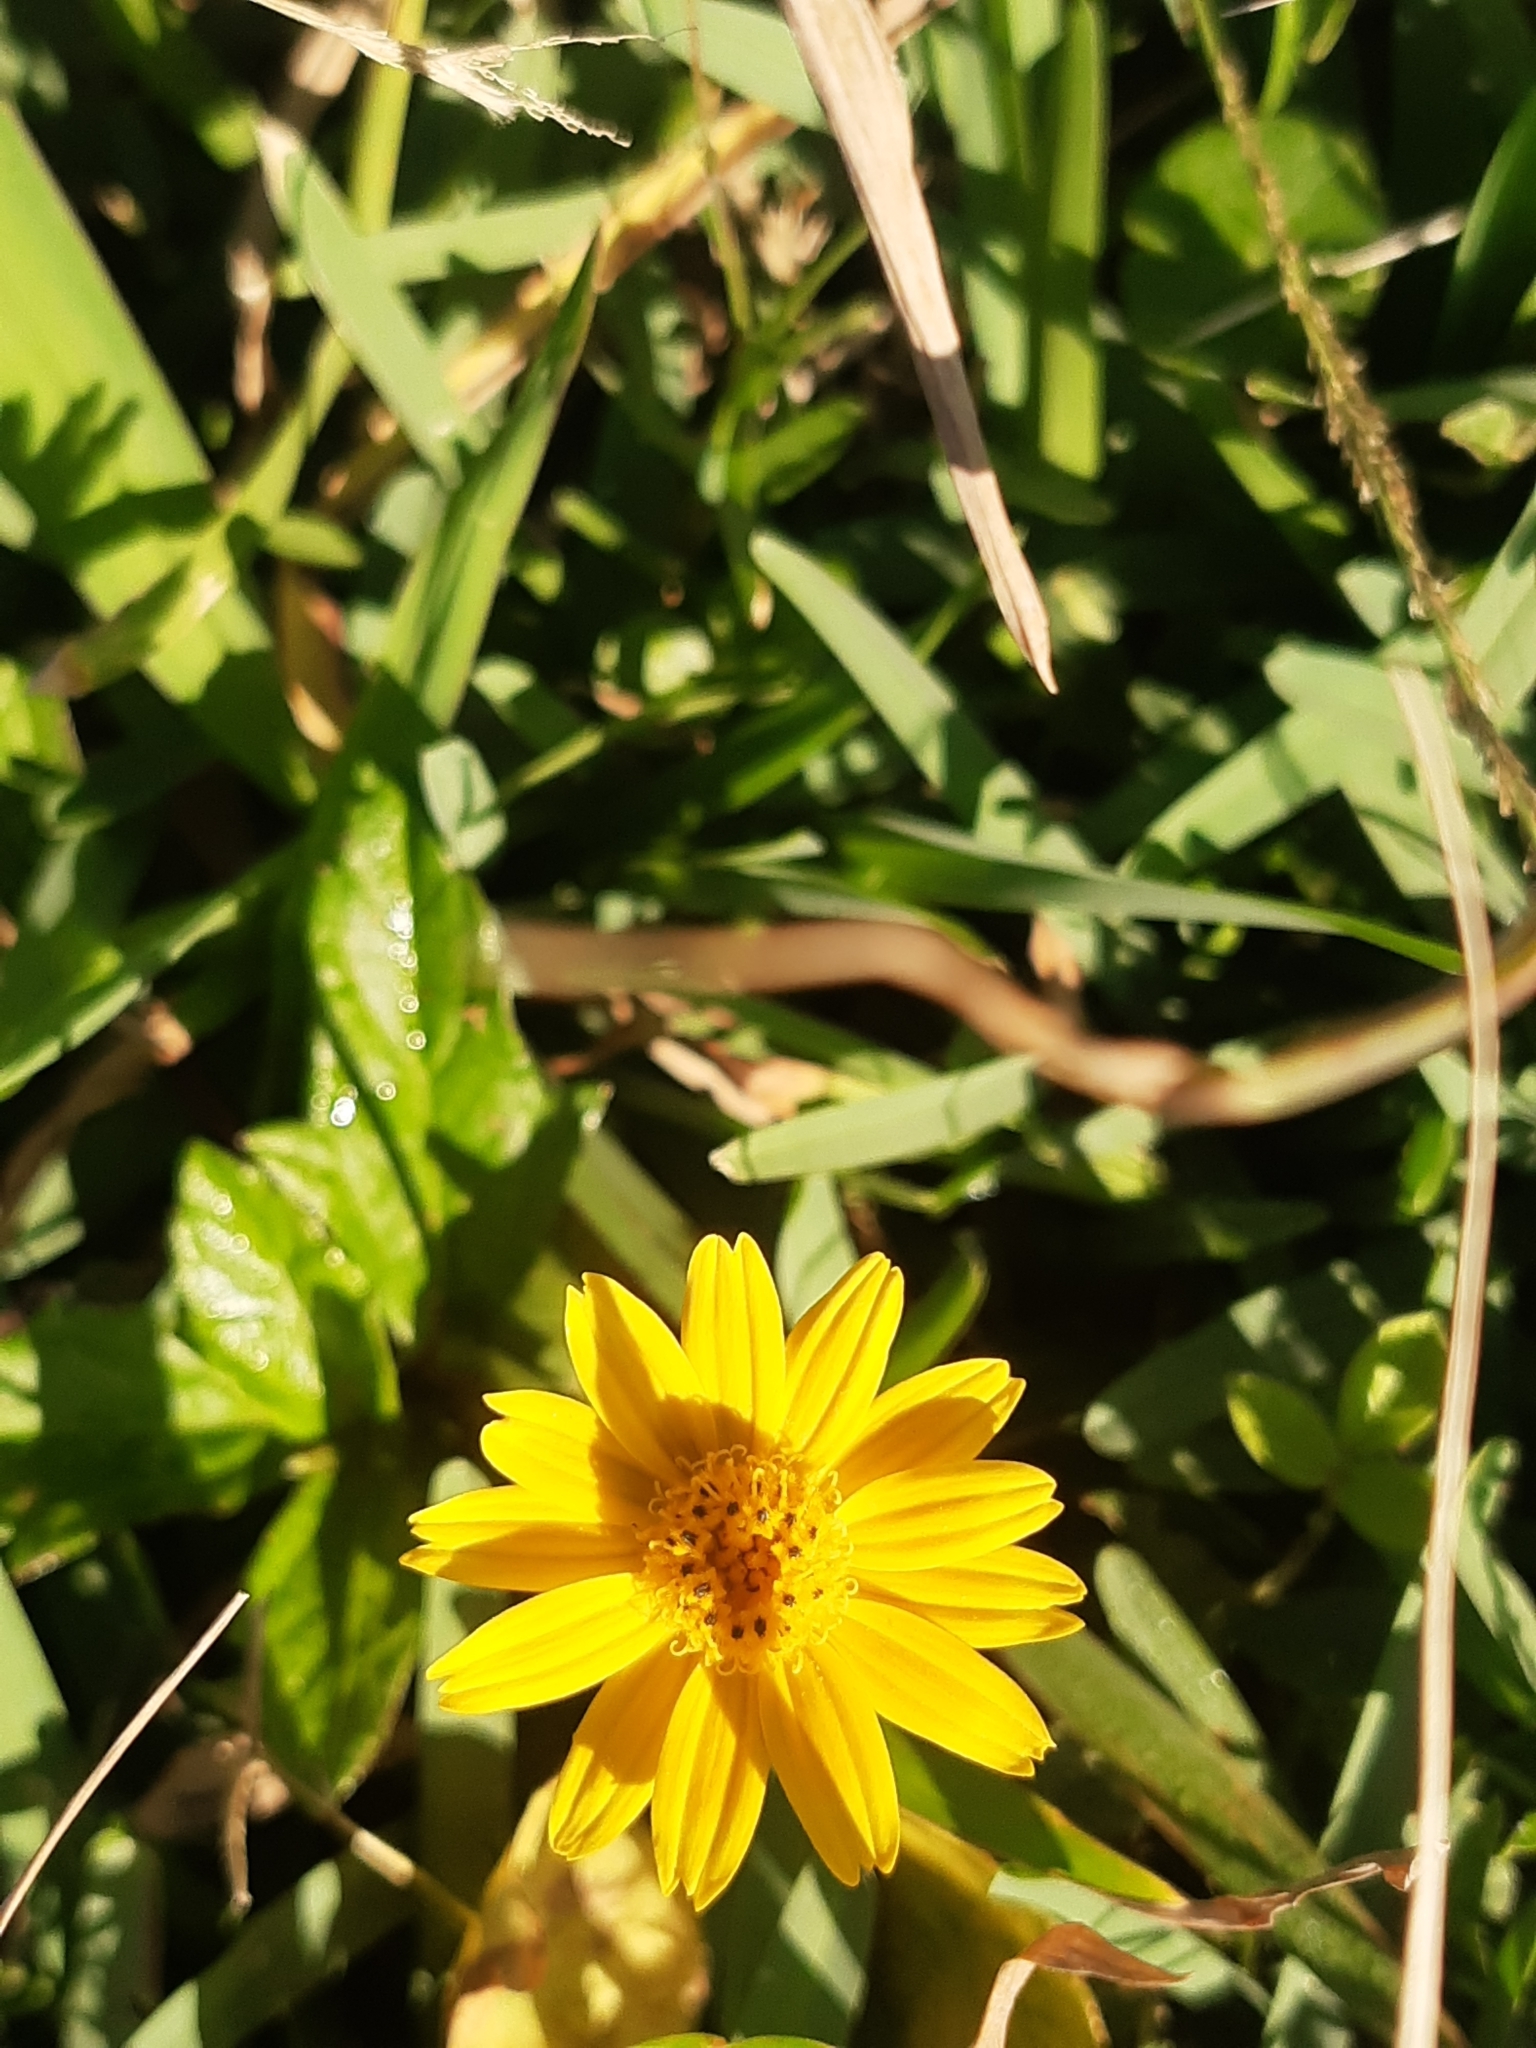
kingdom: Plantae
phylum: Tracheophyta
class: Magnoliopsida
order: Asterales
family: Asteraceae
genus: Sphagneticola
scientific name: Sphagneticola trilobata
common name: Bay biscayne creeping-oxeye
